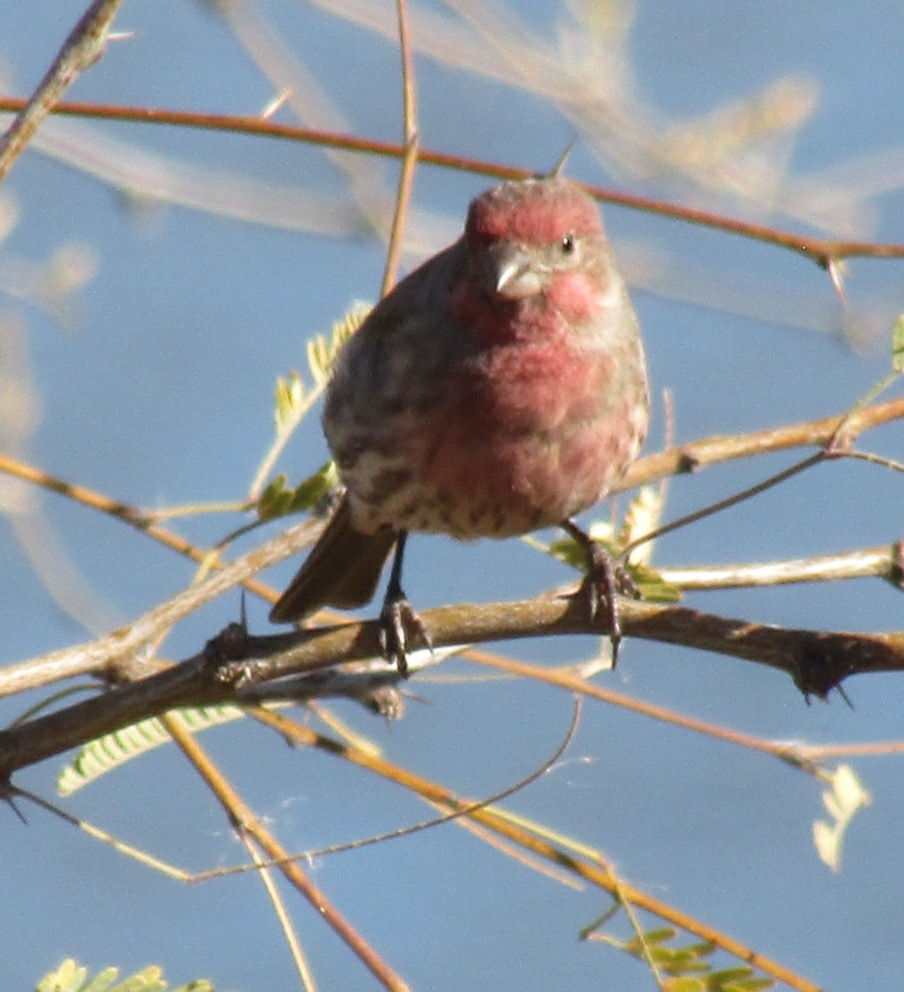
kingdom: Animalia
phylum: Chordata
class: Aves
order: Passeriformes
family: Fringillidae
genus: Haemorhous
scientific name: Haemorhous mexicanus
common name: House finch
